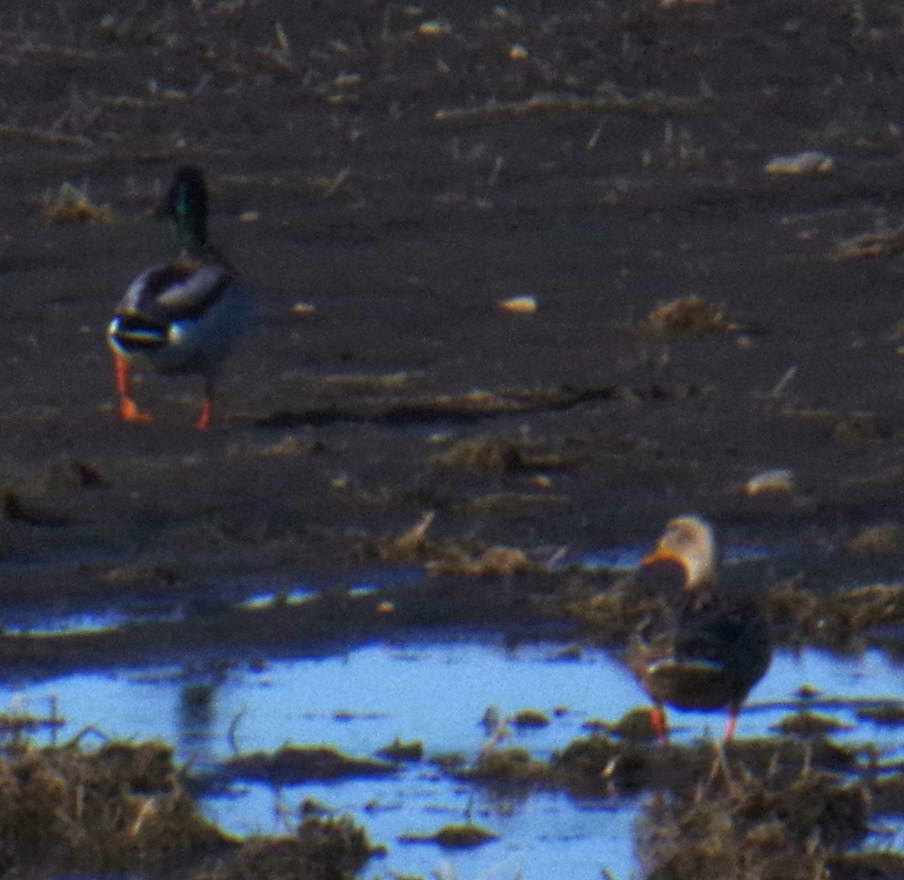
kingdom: Animalia
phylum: Chordata
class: Aves
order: Anseriformes
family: Anatidae
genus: Anas
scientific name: Anas platyrhynchos
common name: Mallard
